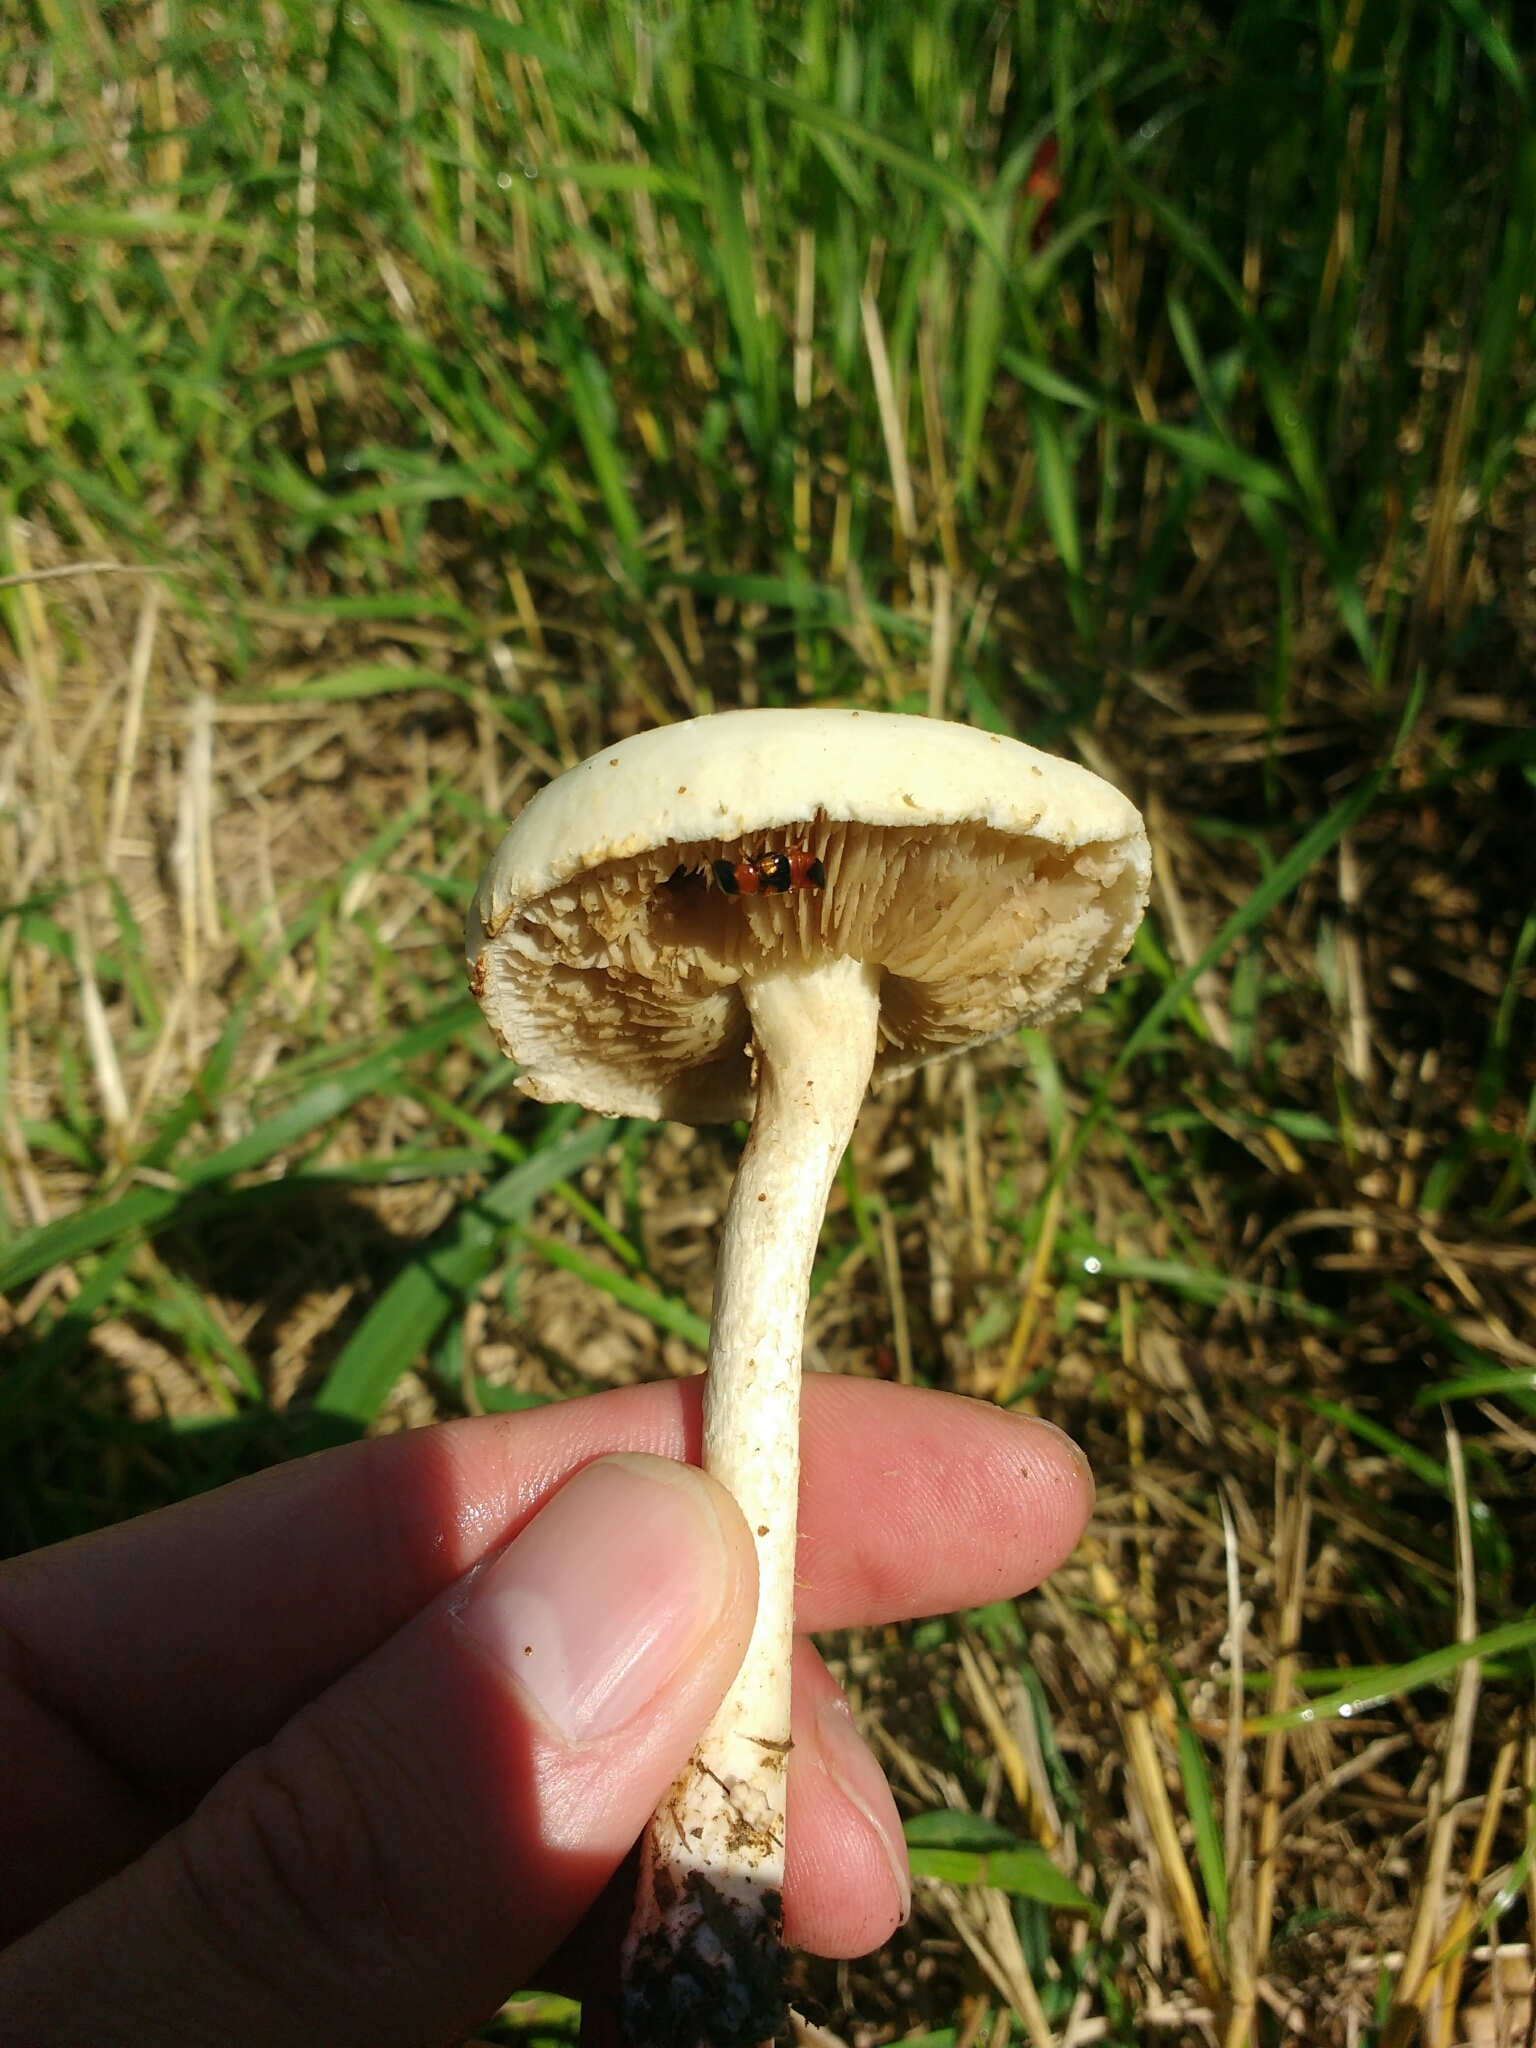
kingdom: Fungi
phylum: Basidiomycota
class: Agaricomycetes
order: Agaricales
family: Strophariaceae
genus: Agrocybe
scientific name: Agrocybe molesta
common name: Bearded fieldcap
